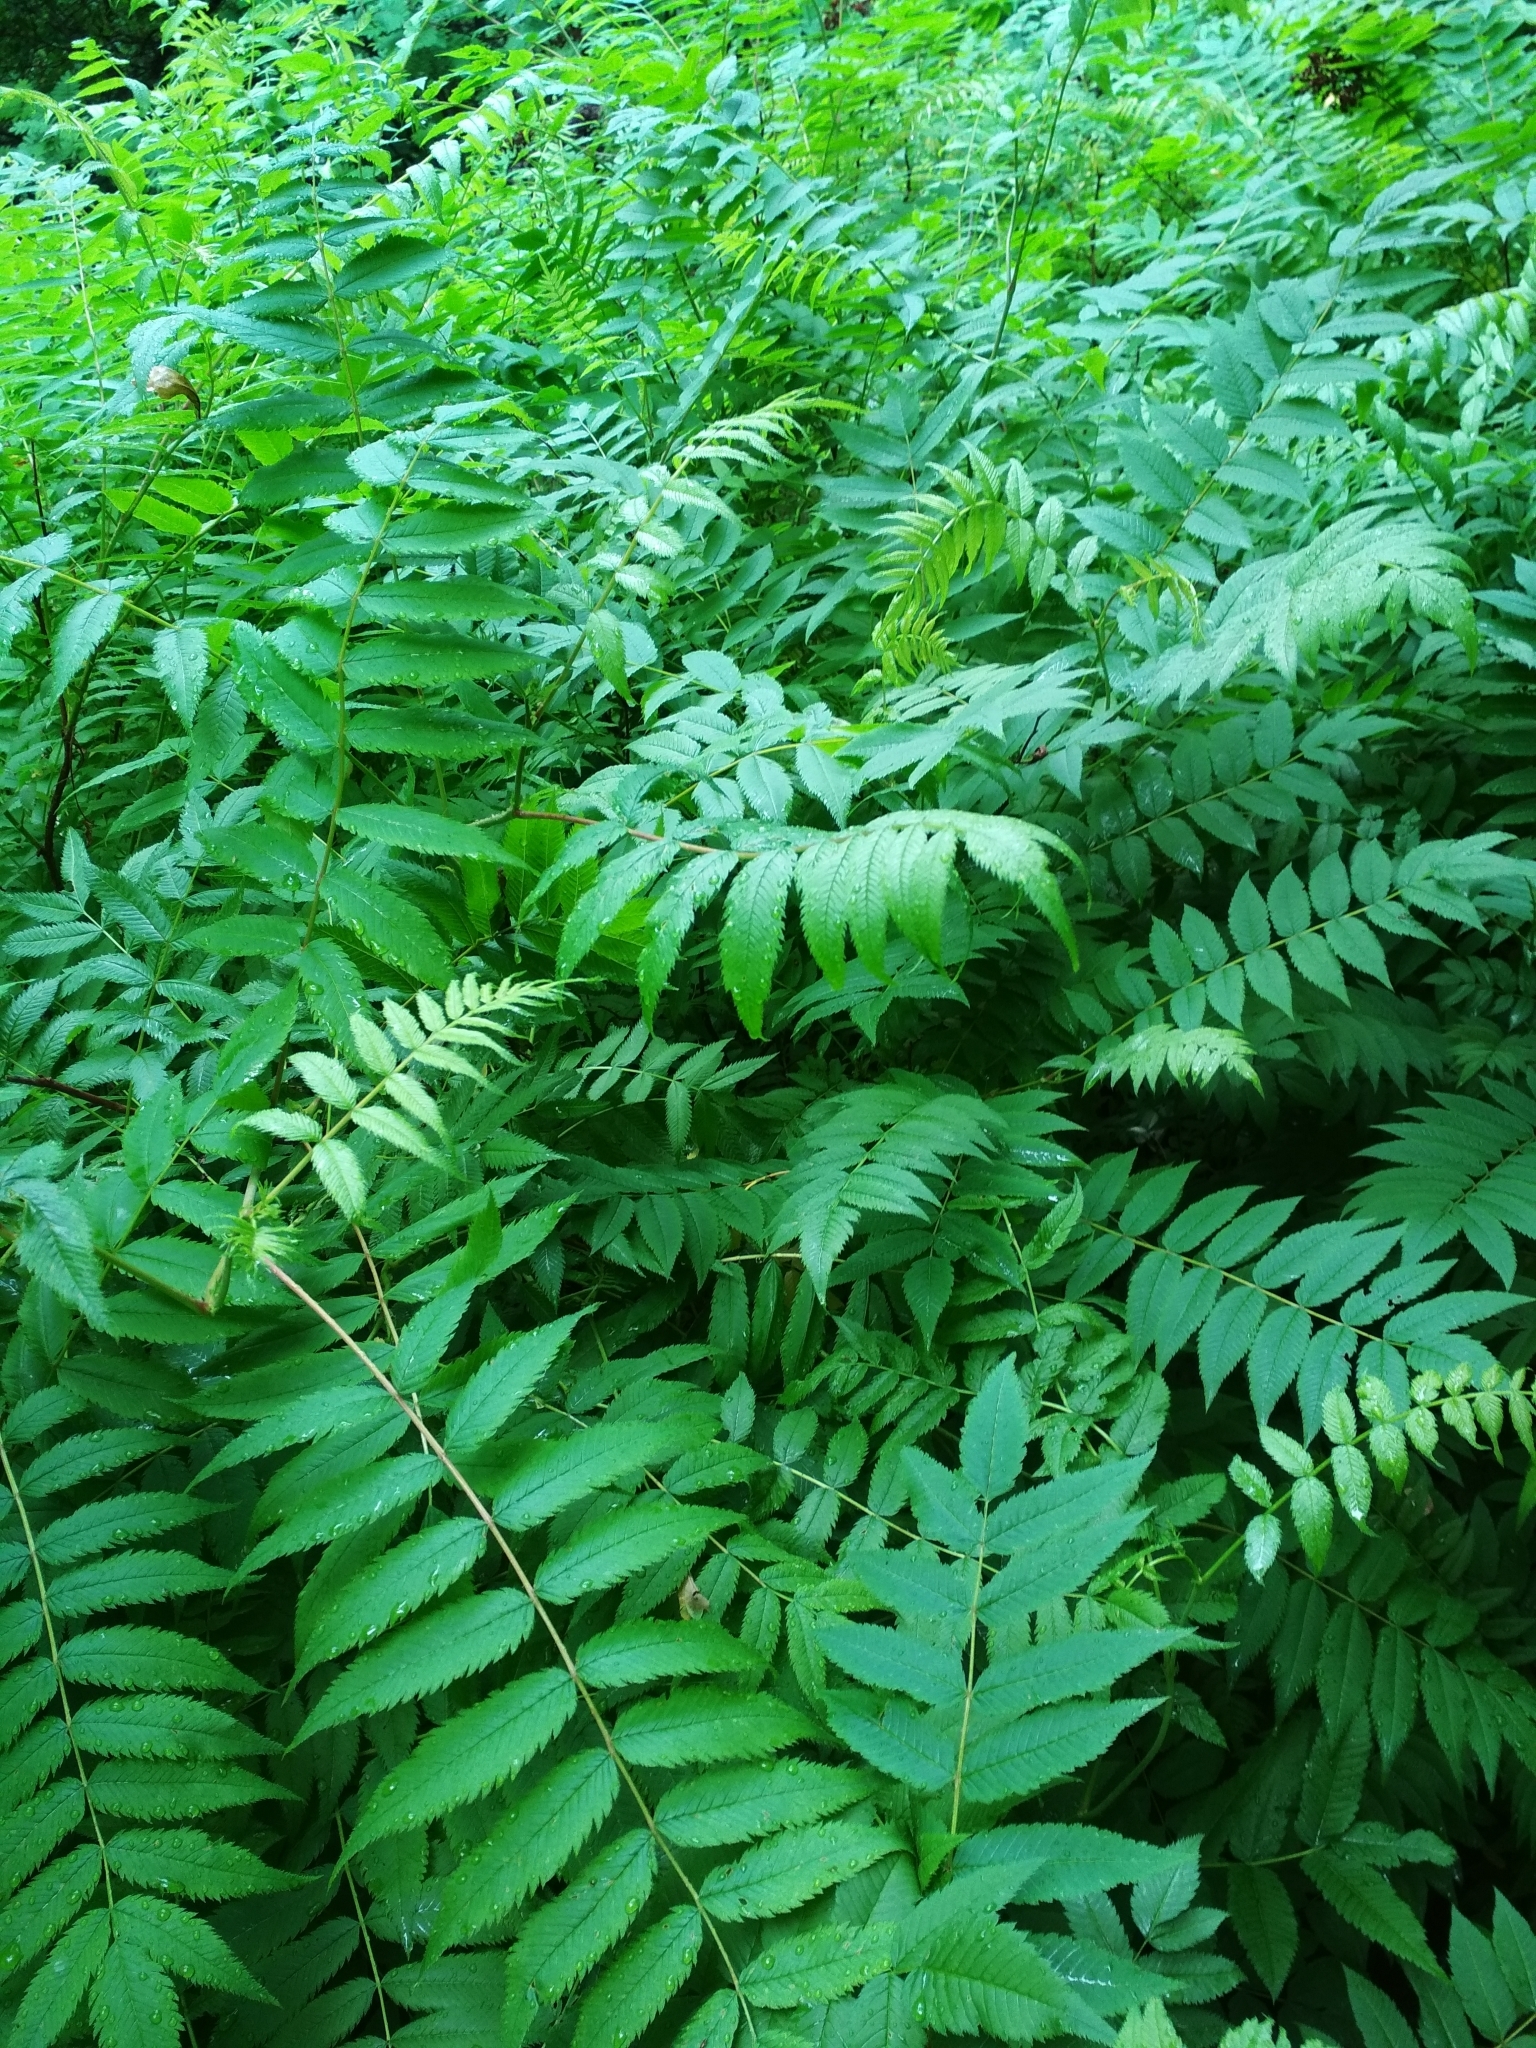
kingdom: Plantae
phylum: Tracheophyta
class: Magnoliopsida
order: Rosales
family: Rosaceae
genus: Sorbaria
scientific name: Sorbaria sorbifolia
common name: False spiraea
